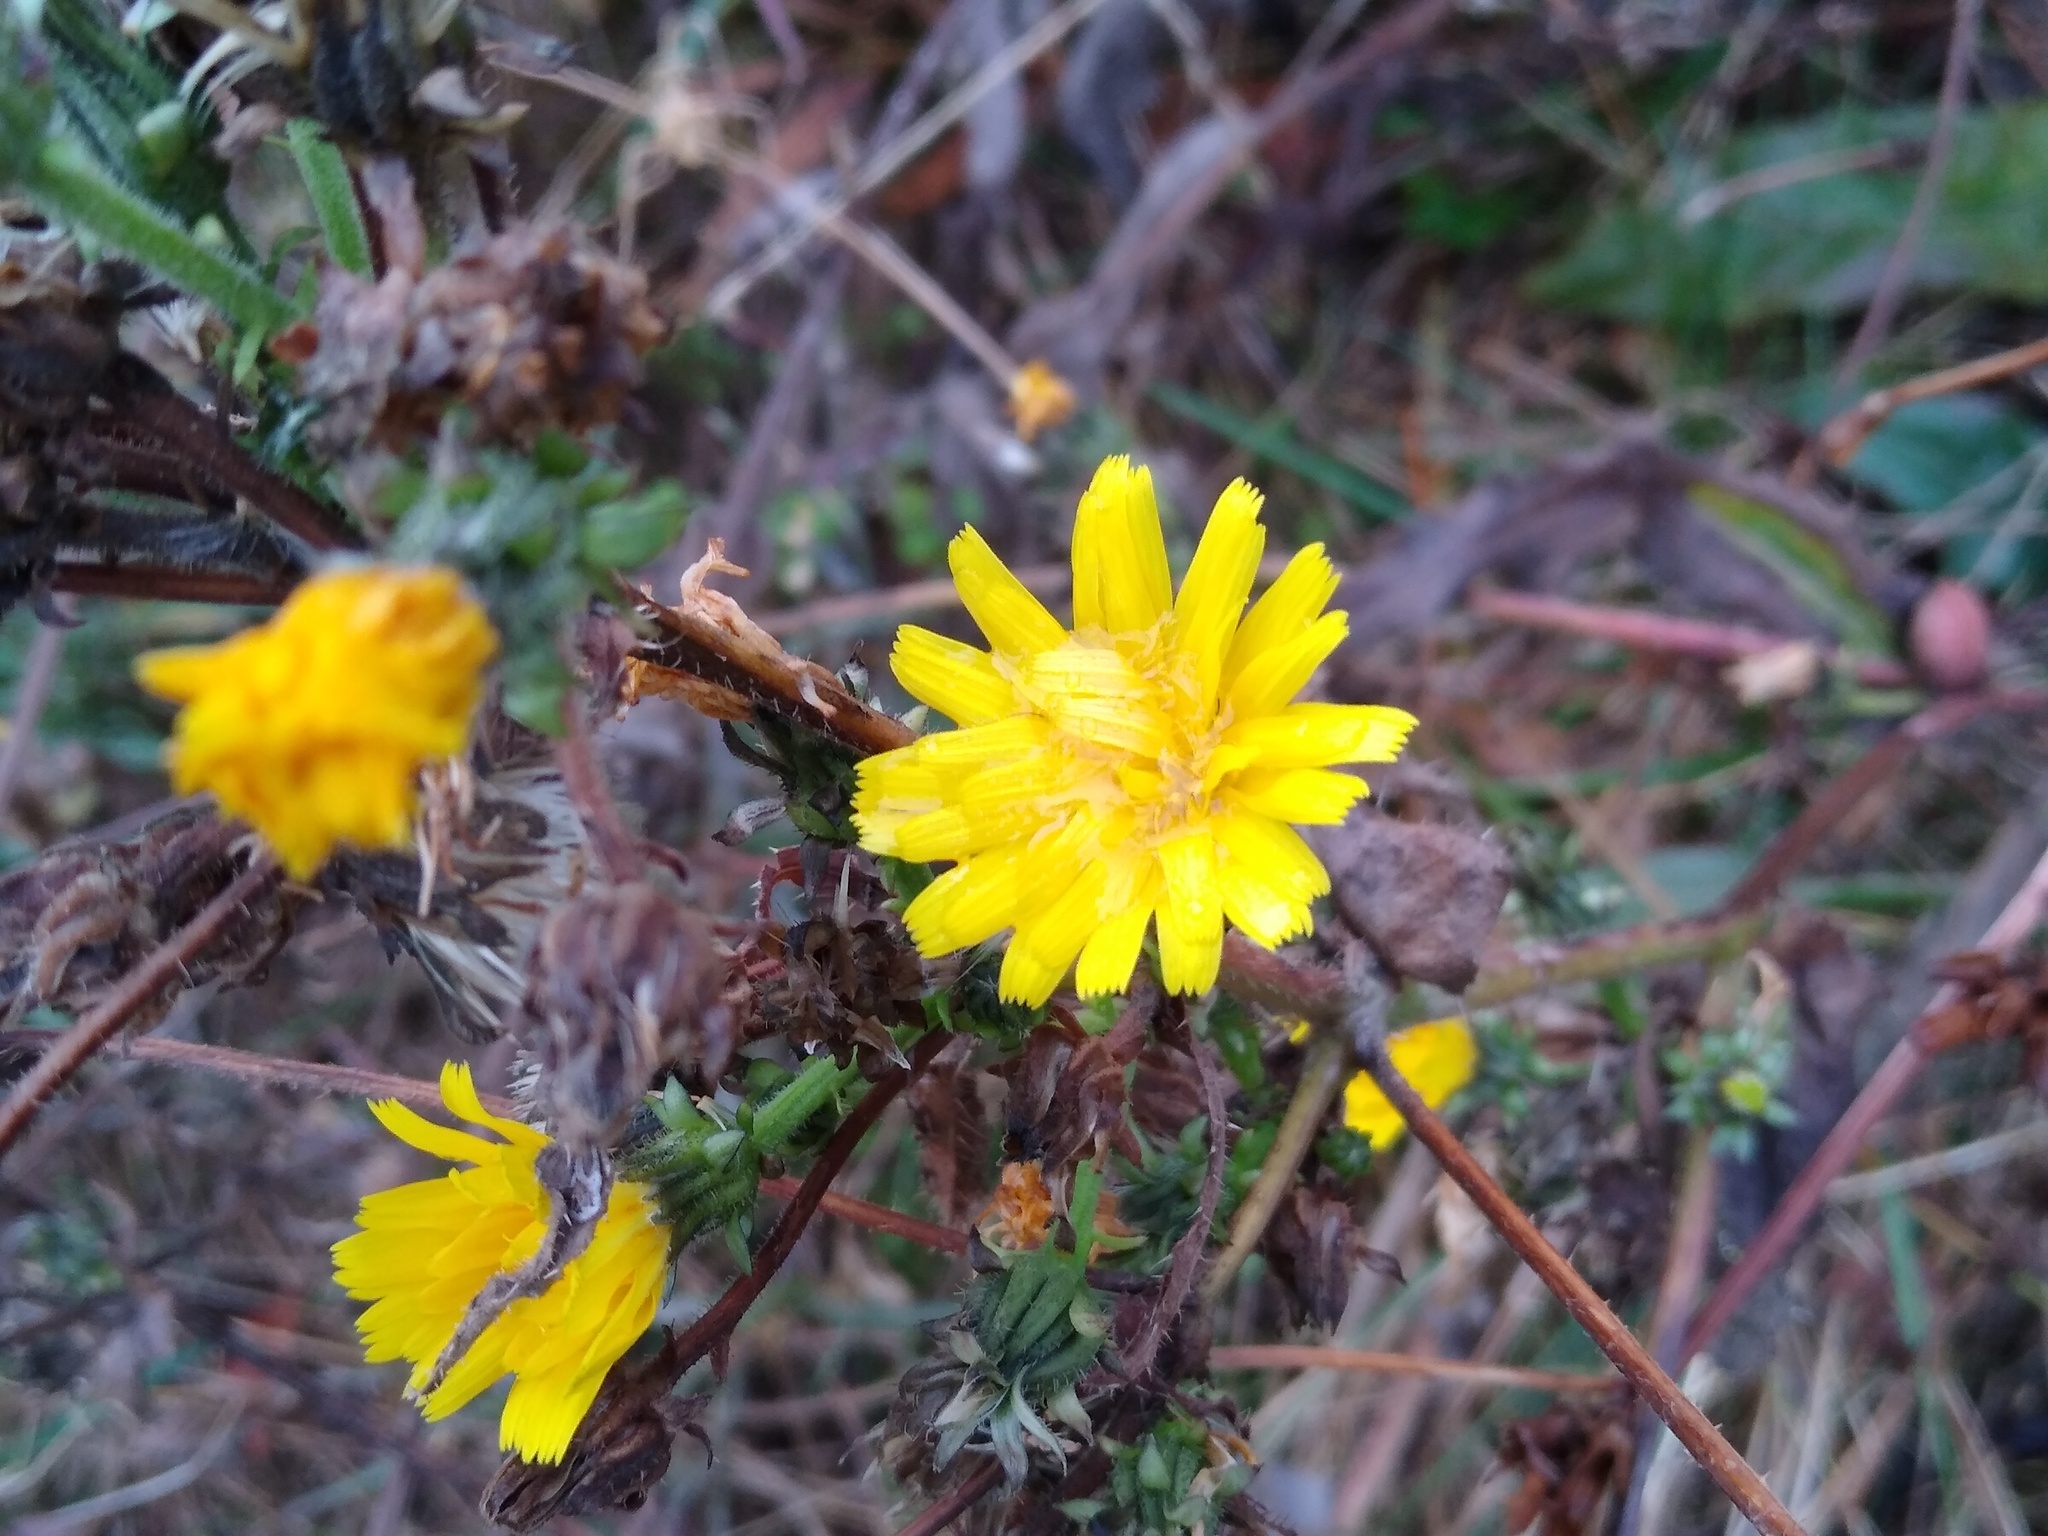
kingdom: Plantae
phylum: Tracheophyta
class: Magnoliopsida
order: Asterales
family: Asteraceae
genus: Picris
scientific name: Picris hieracioides
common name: Hawkweed oxtongue
